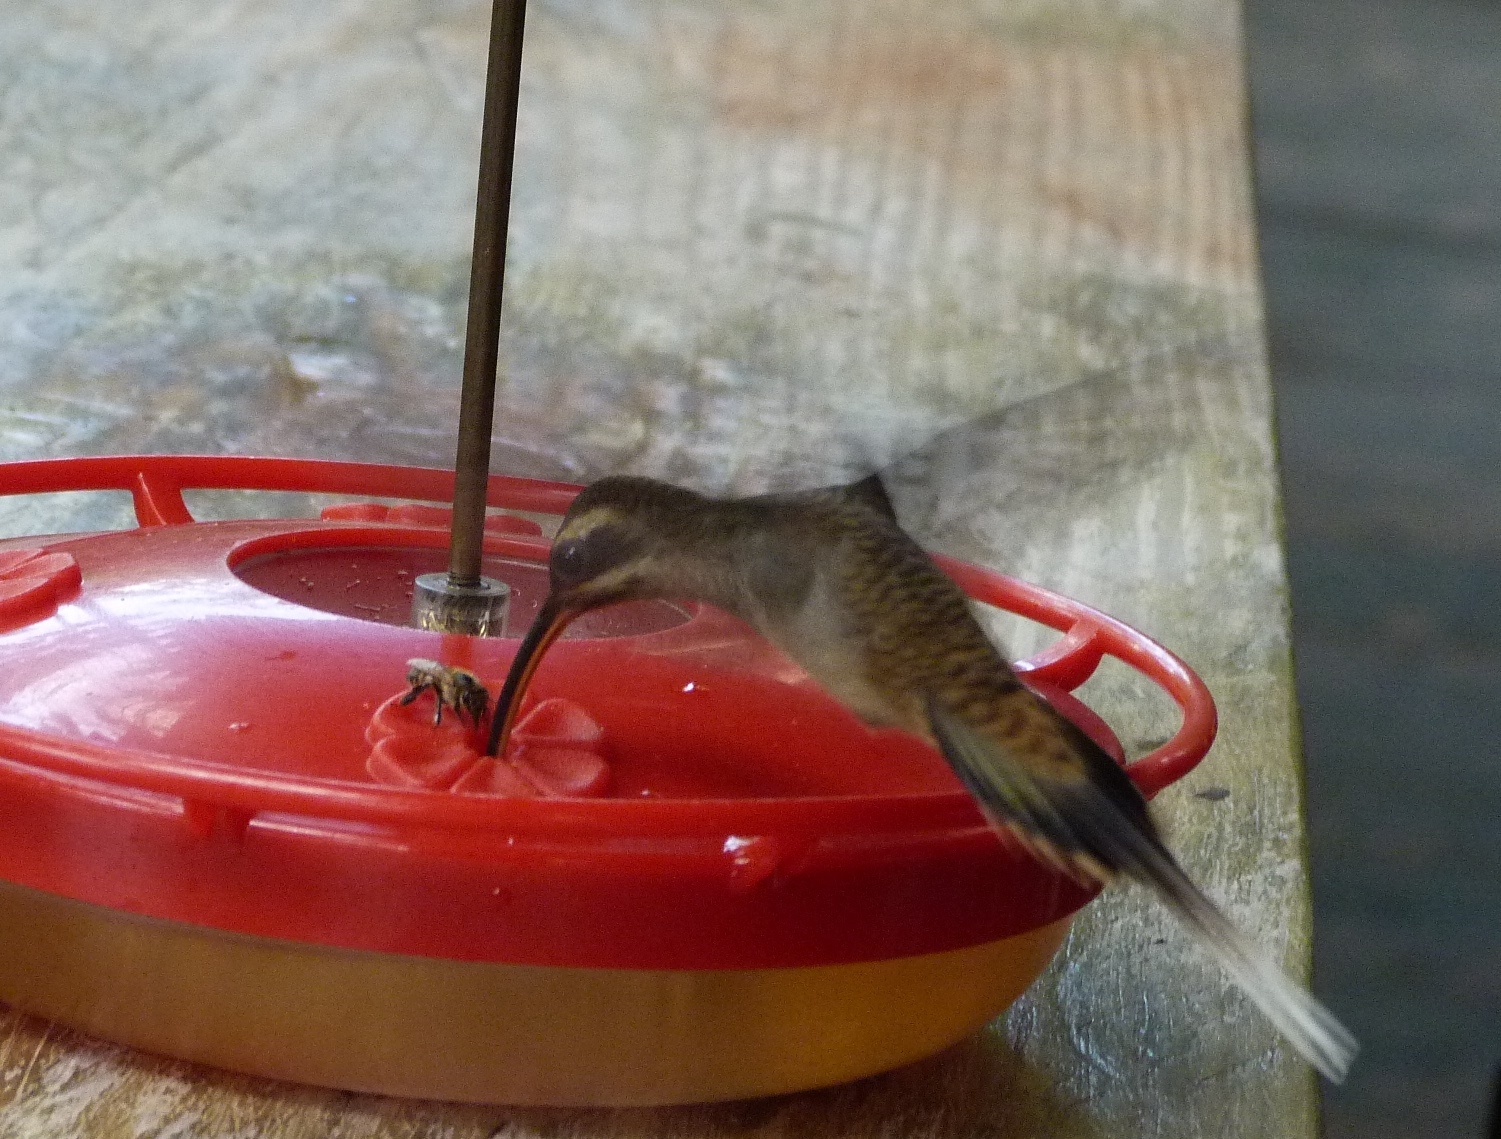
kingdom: Animalia
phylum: Chordata
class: Aves
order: Apodiformes
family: Trochilidae
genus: Phaethornis
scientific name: Phaethornis longirostris
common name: Long-billed hermit
